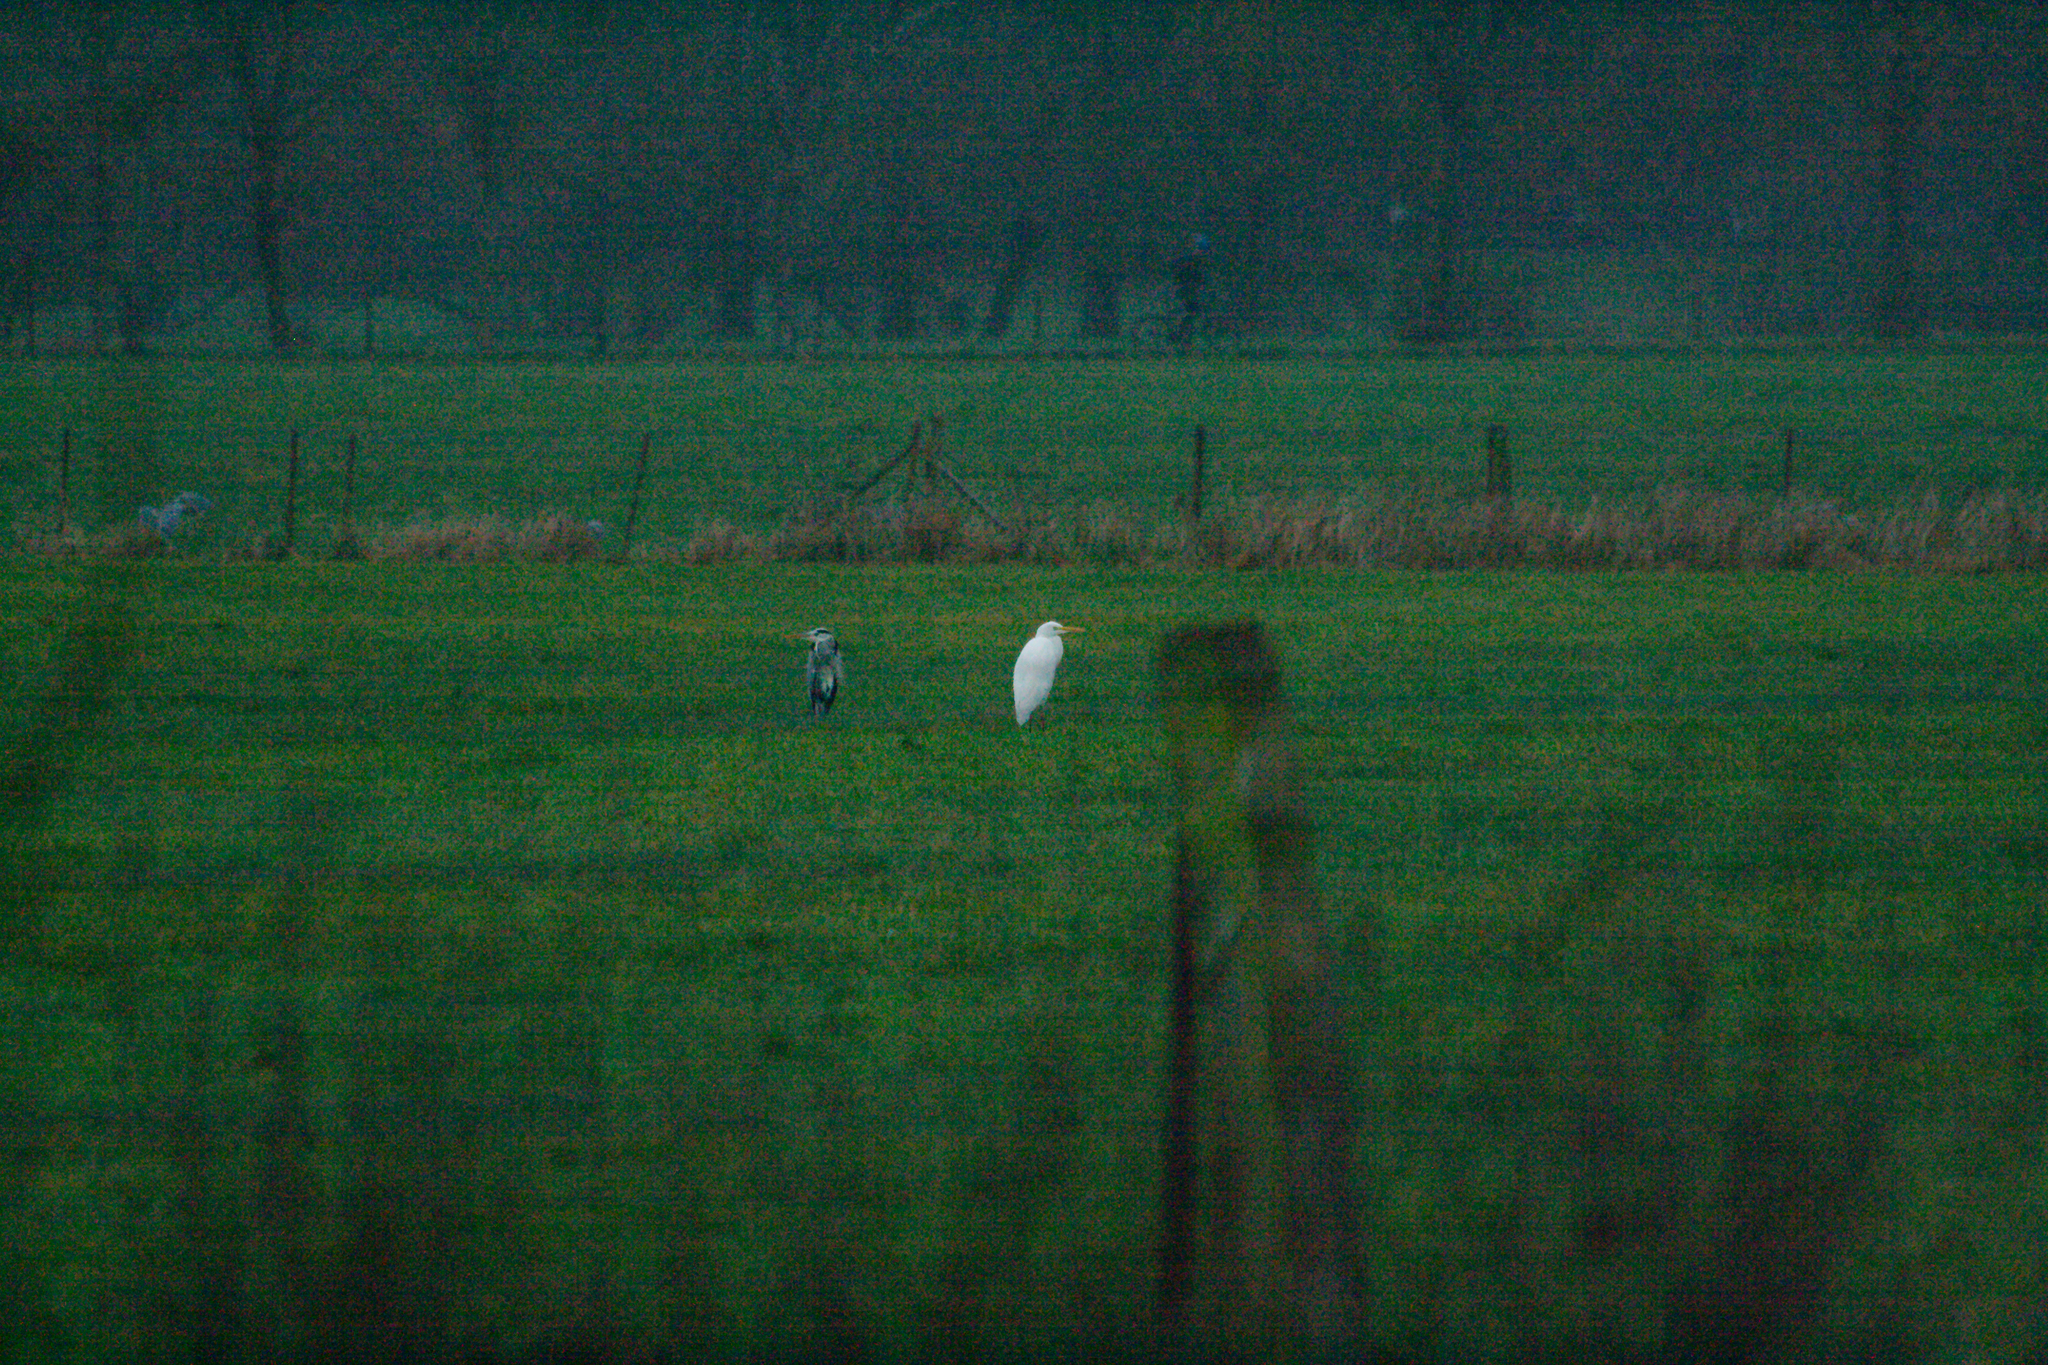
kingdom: Animalia
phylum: Chordata
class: Aves
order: Pelecaniformes
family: Ardeidae
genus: Ardea
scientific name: Ardea alba
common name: Great egret
